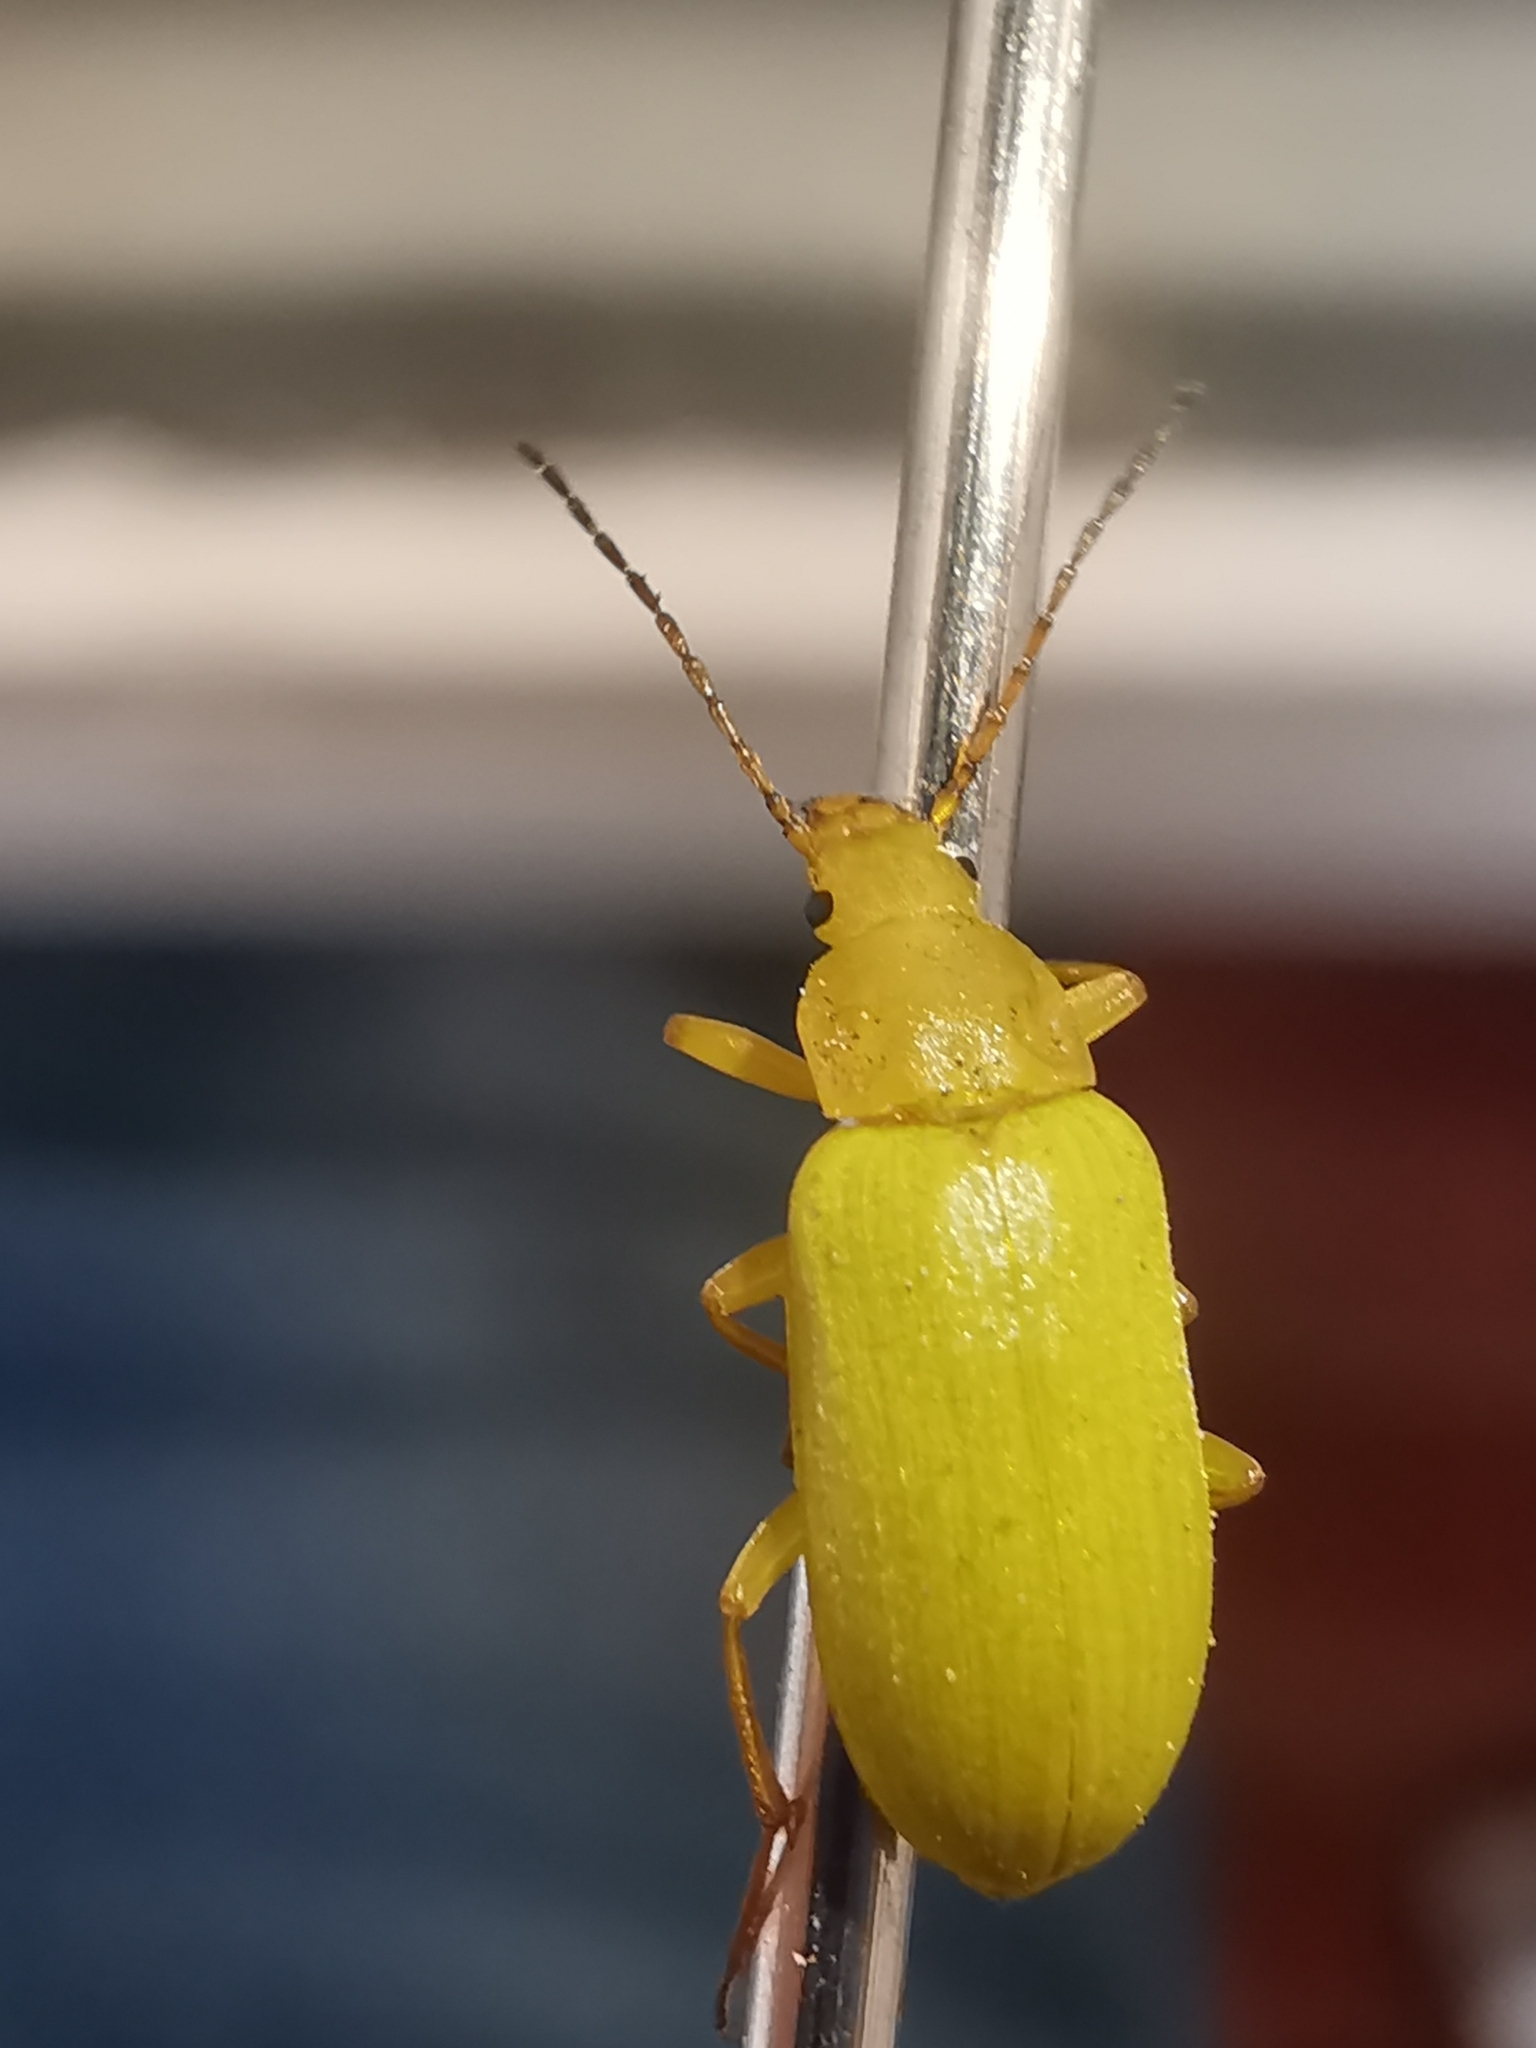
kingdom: Animalia
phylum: Arthropoda
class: Insecta
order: Coleoptera
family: Tenebrionidae
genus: Cteniopus
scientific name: Cteniopus sulphureus
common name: Sulphur beetle
